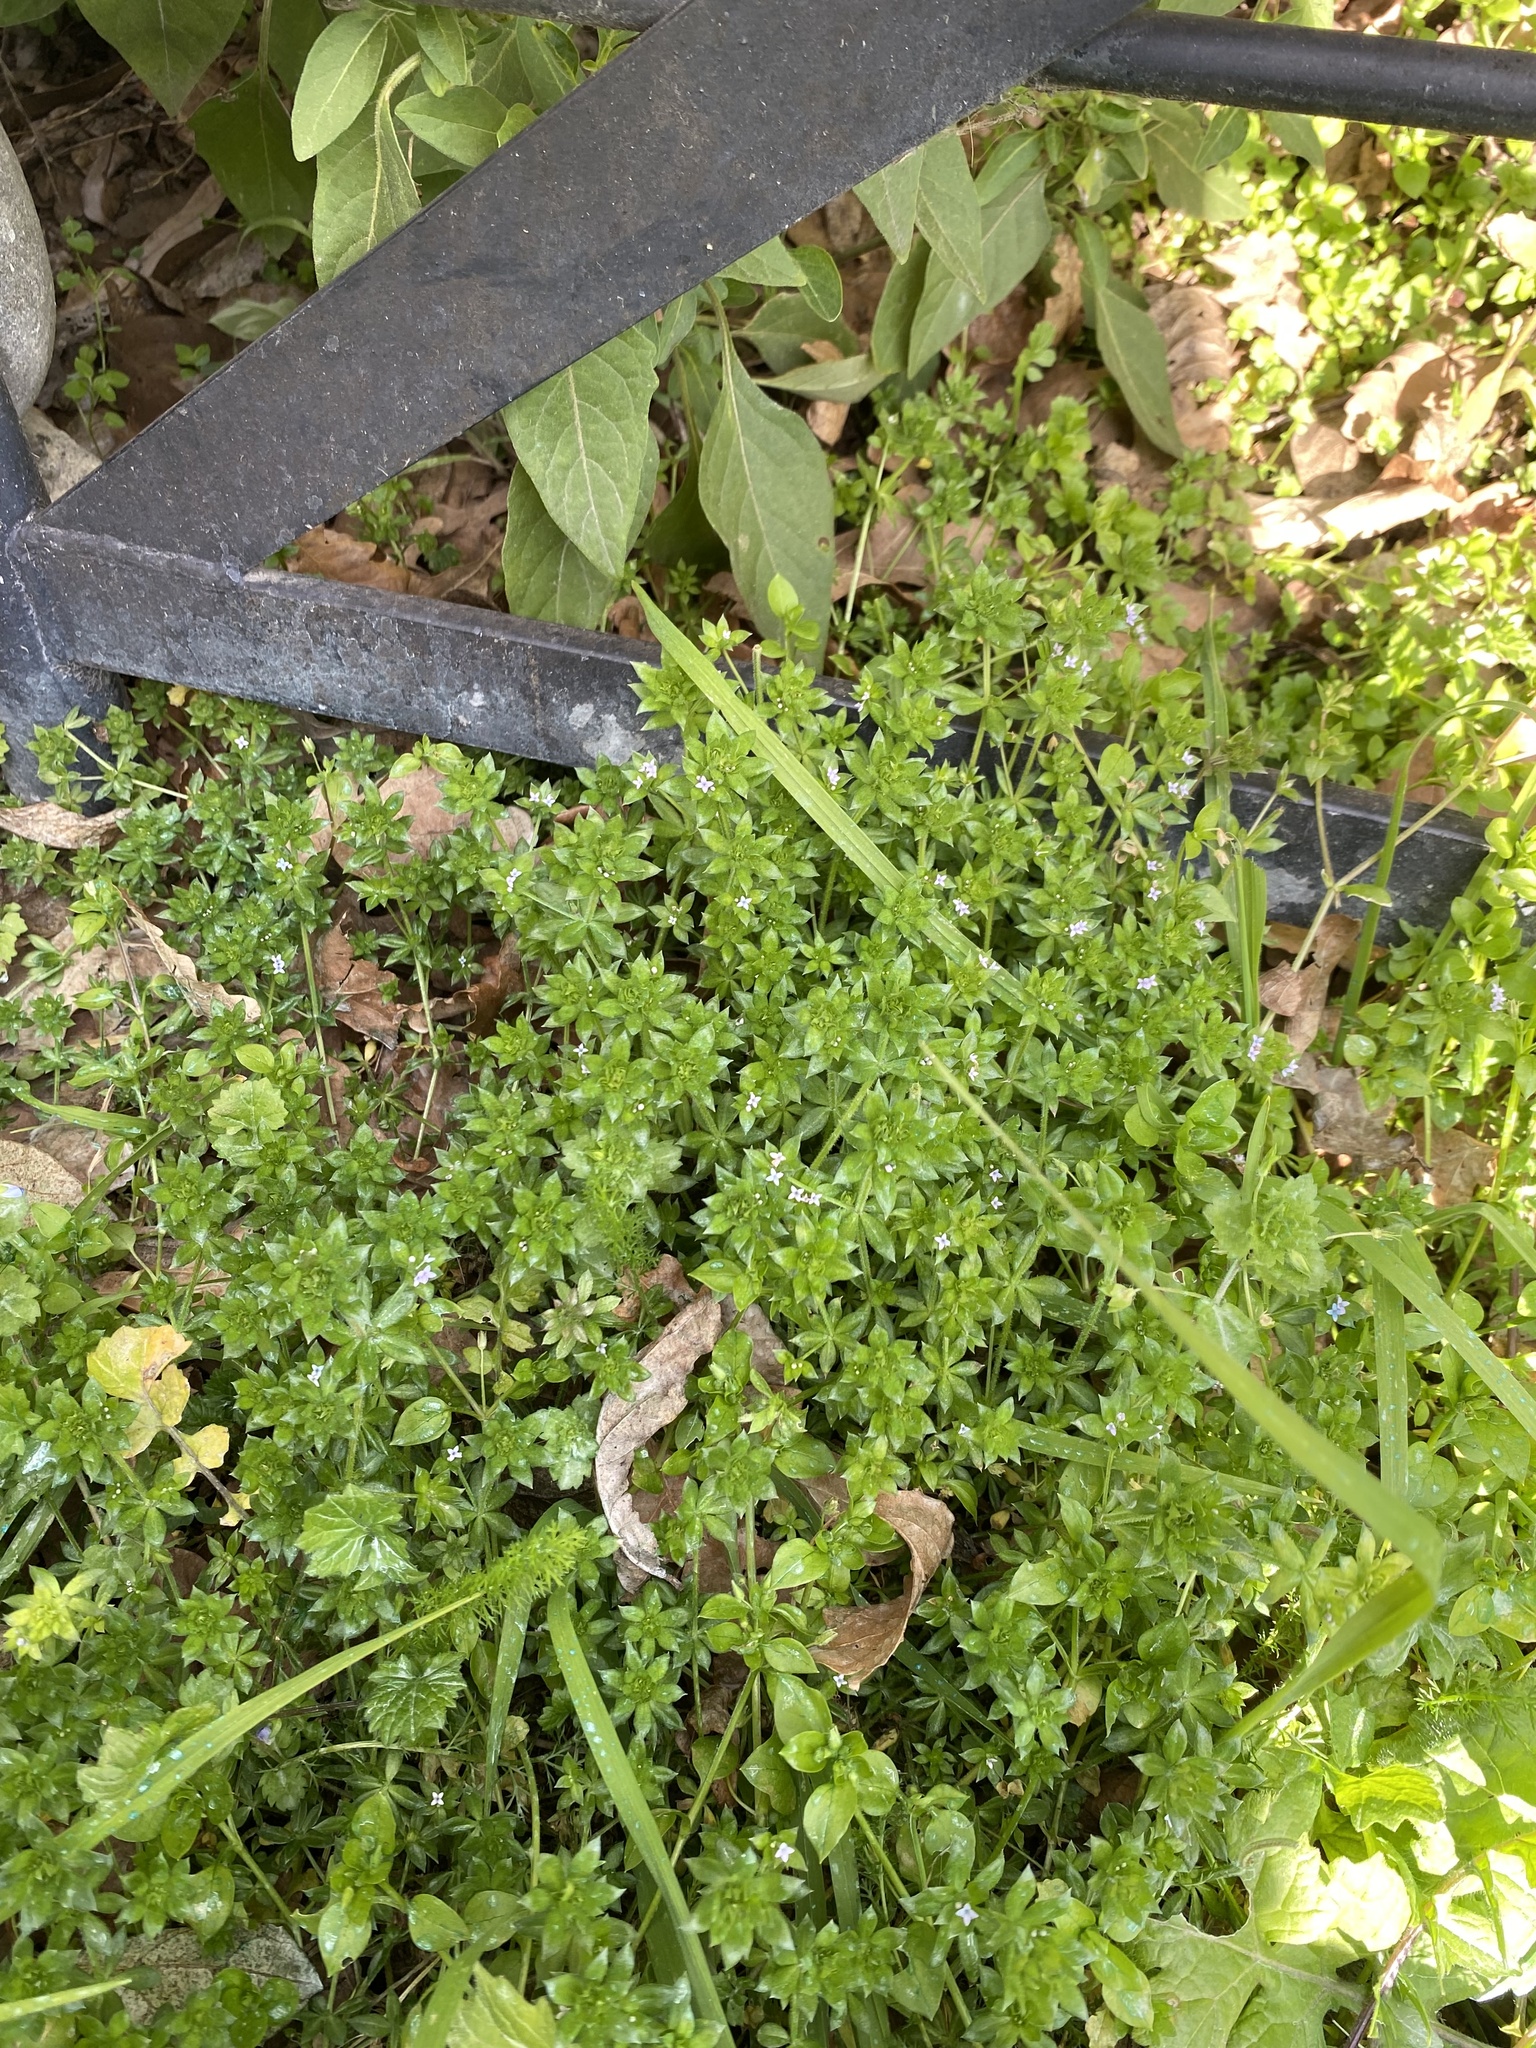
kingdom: Plantae
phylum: Tracheophyta
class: Magnoliopsida
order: Gentianales
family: Rubiaceae
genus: Sherardia
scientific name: Sherardia arvensis
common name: Field madder
